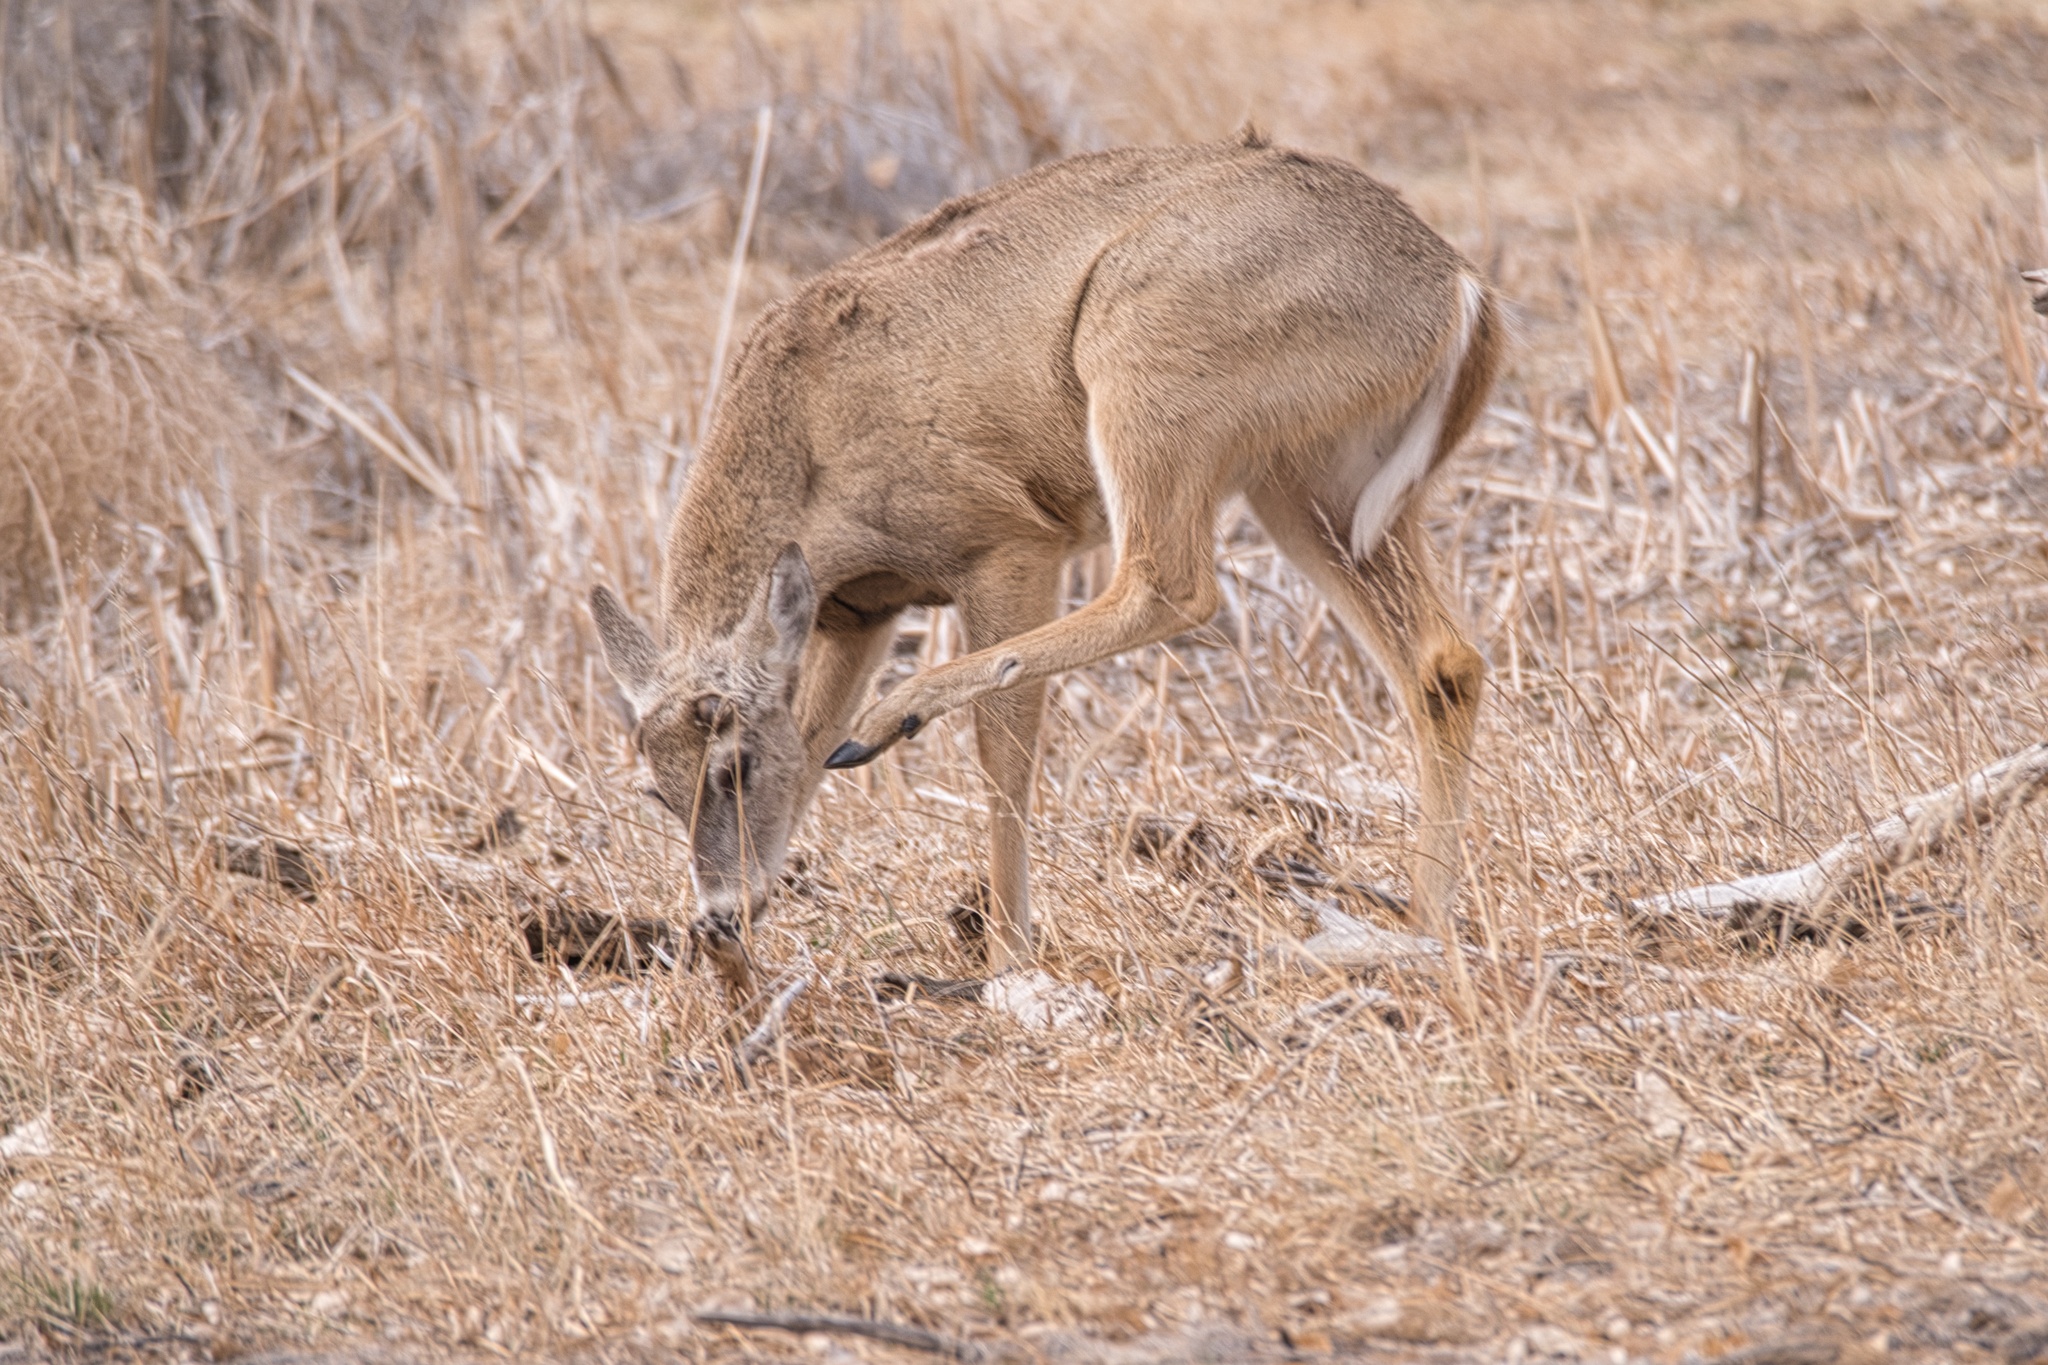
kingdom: Animalia
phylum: Chordata
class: Mammalia
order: Artiodactyla
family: Cervidae
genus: Odocoileus
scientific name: Odocoileus virginianus
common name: White-tailed deer
